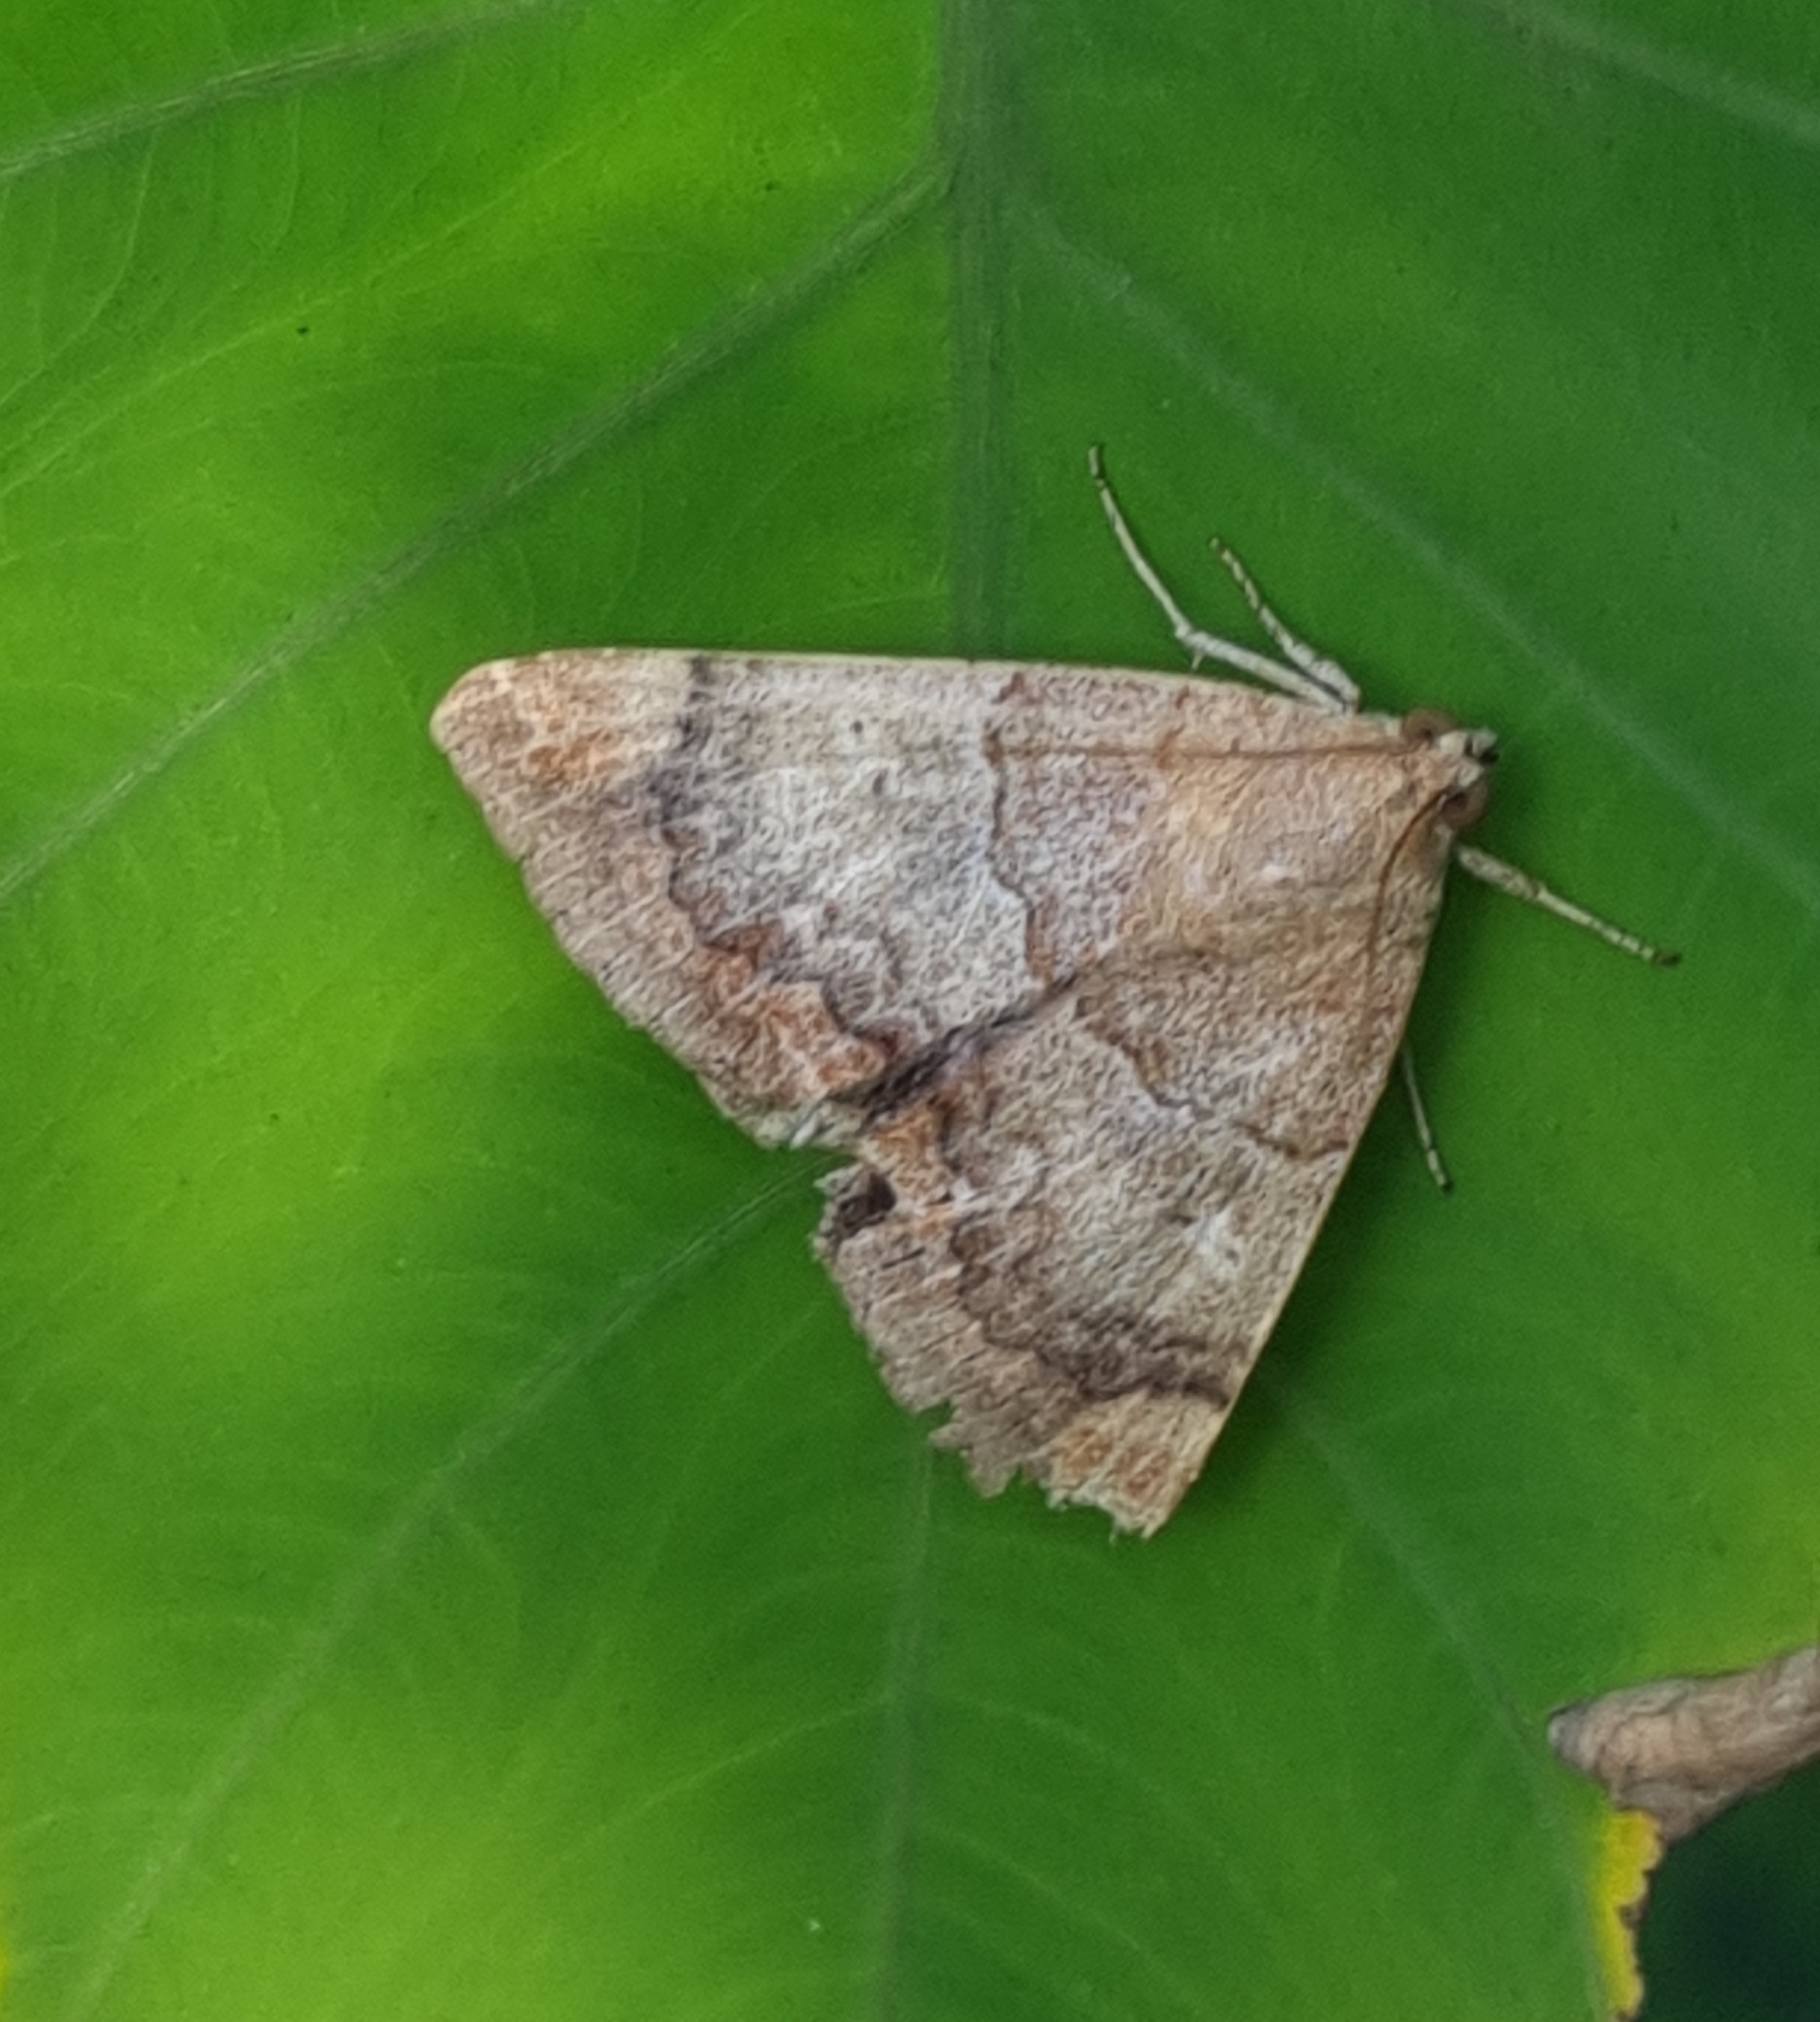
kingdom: Animalia
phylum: Arthropoda
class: Insecta
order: Lepidoptera
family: Erebidae
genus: Achaea
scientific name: Achaea janata
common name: Croton caterpillar
